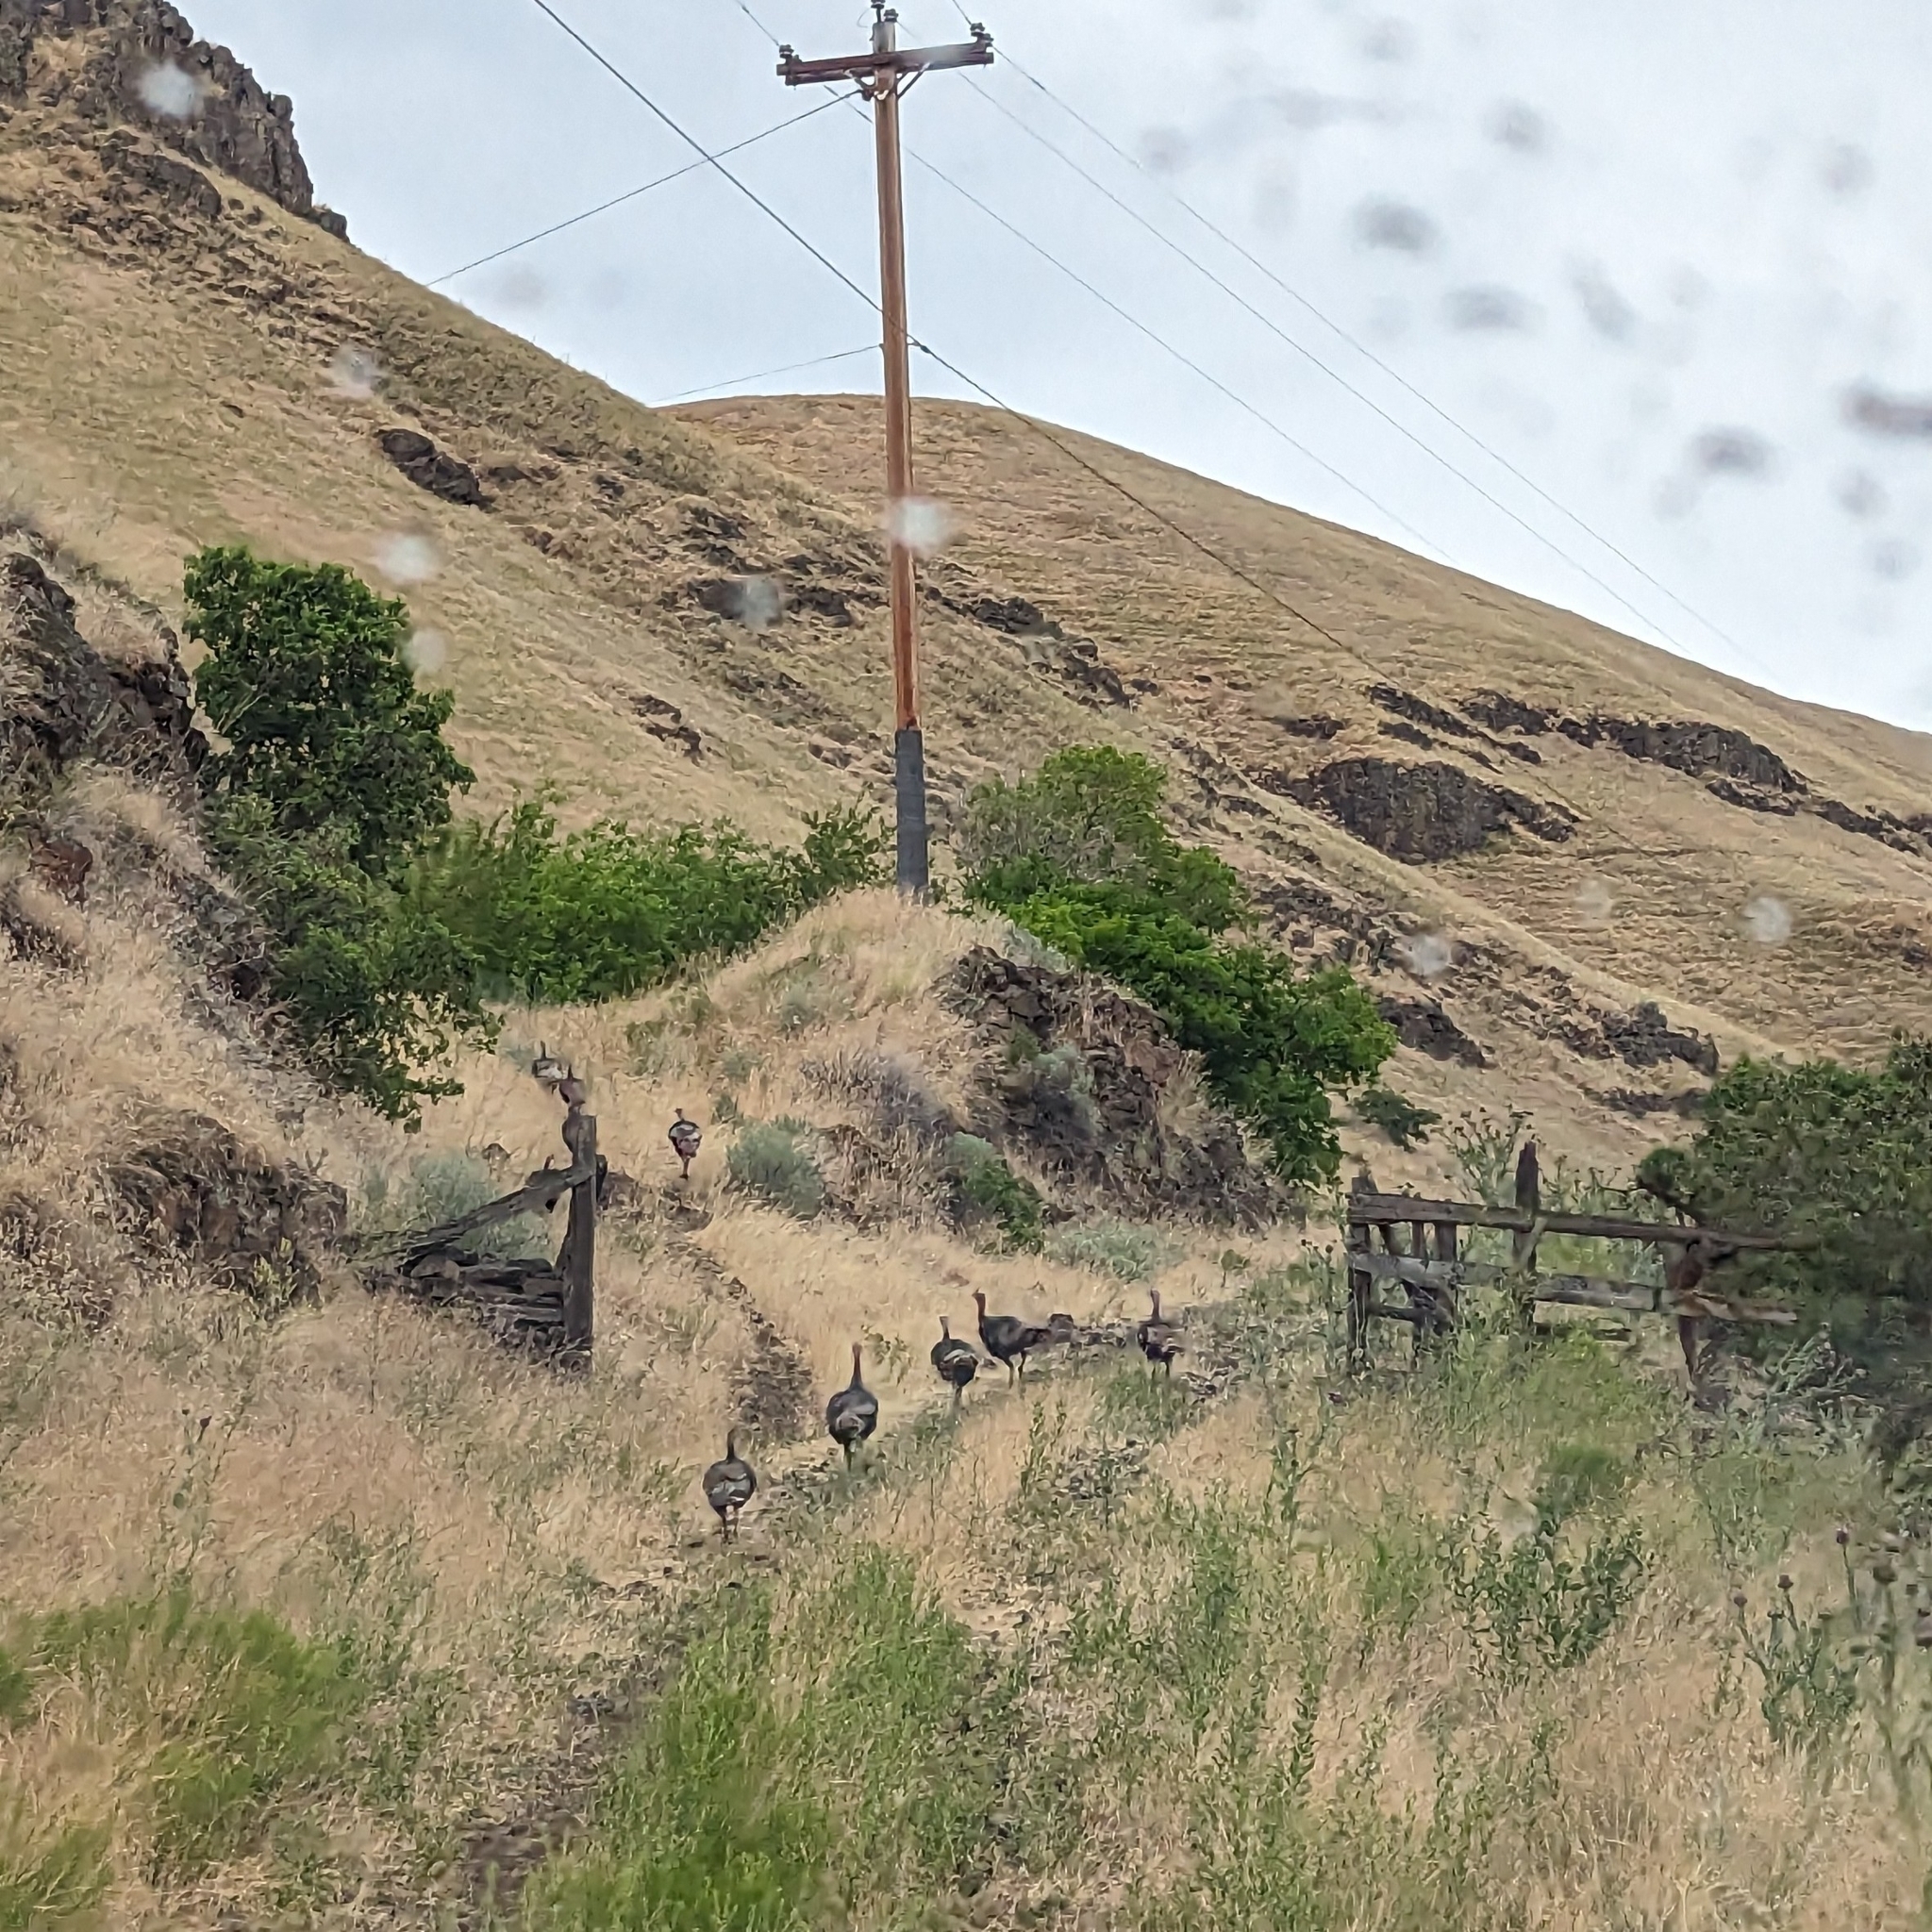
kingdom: Animalia
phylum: Chordata
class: Aves
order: Galliformes
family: Phasianidae
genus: Meleagris
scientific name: Meleagris gallopavo
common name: Wild turkey
